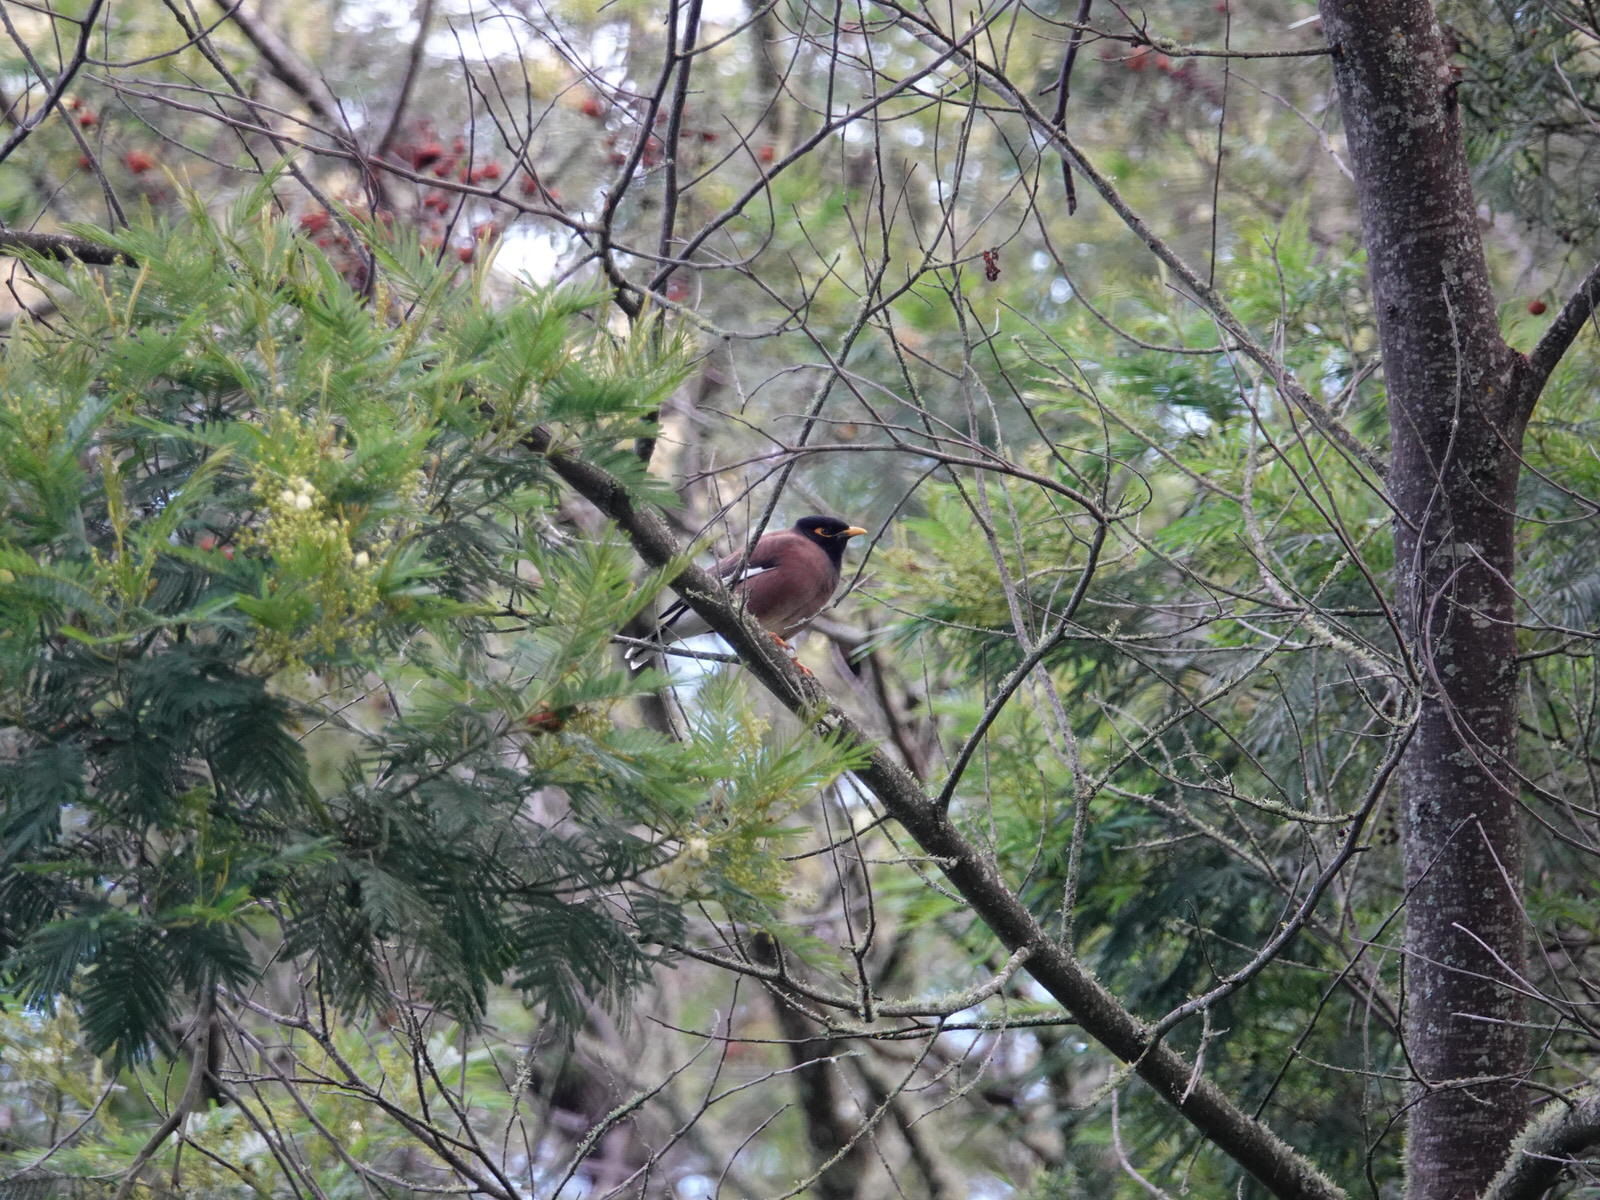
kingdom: Animalia
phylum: Chordata
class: Aves
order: Passeriformes
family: Sturnidae
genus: Acridotheres
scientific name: Acridotheres tristis
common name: Common myna
